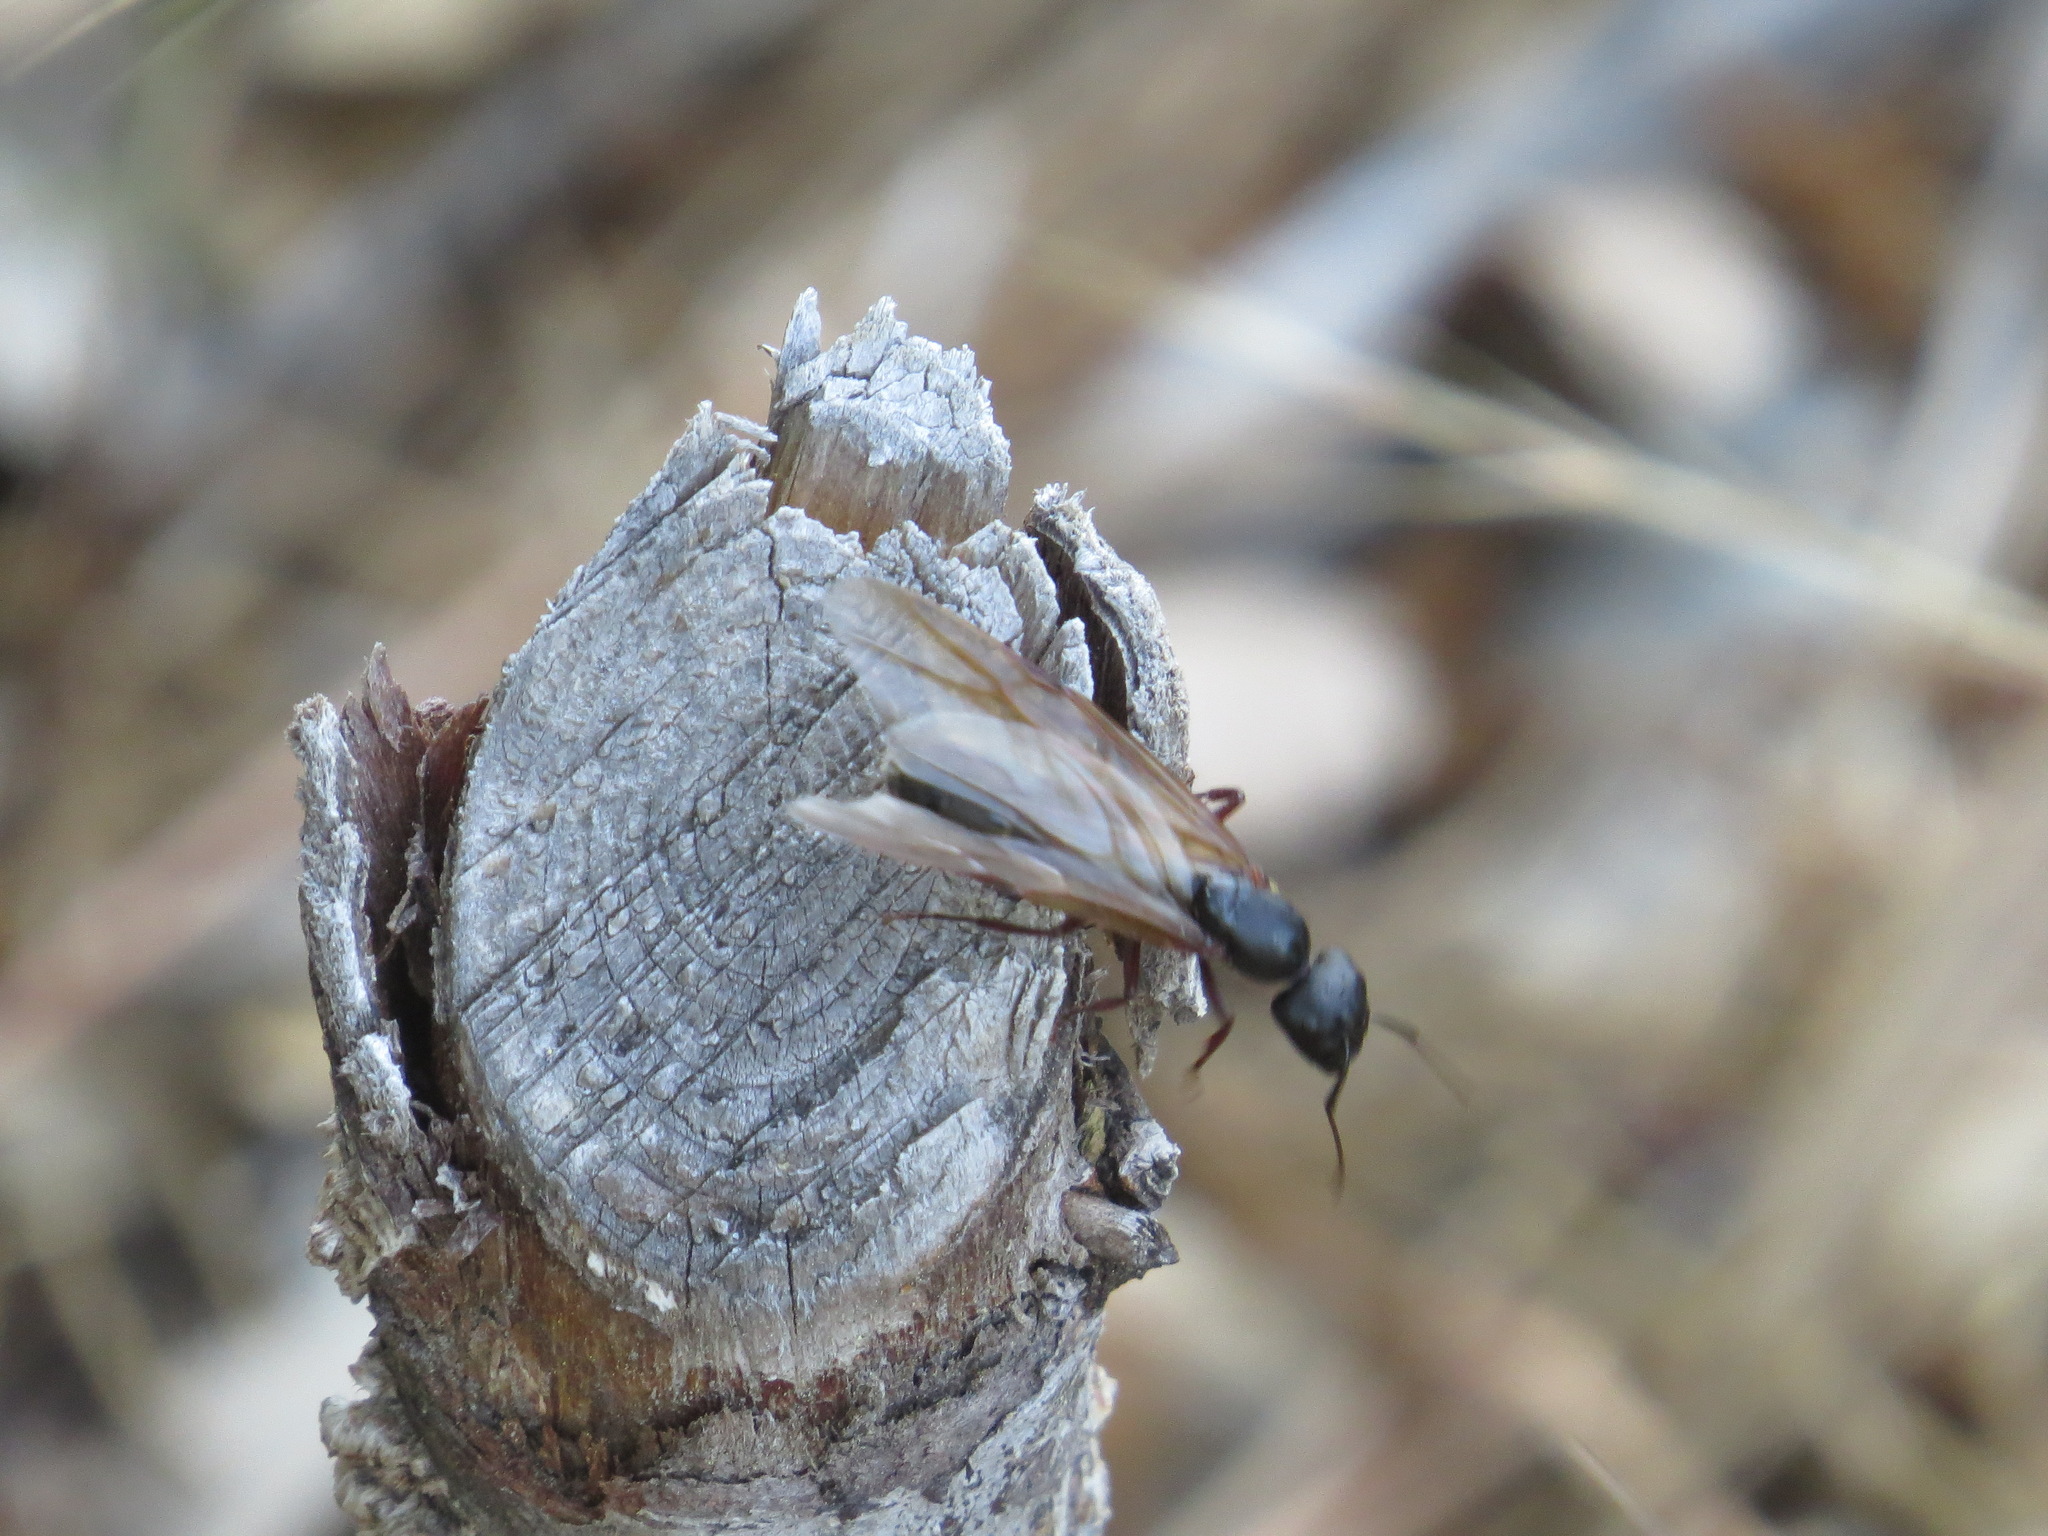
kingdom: Animalia
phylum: Arthropoda
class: Insecta
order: Hymenoptera
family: Formicidae
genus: Camponotus
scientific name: Camponotus modoc
